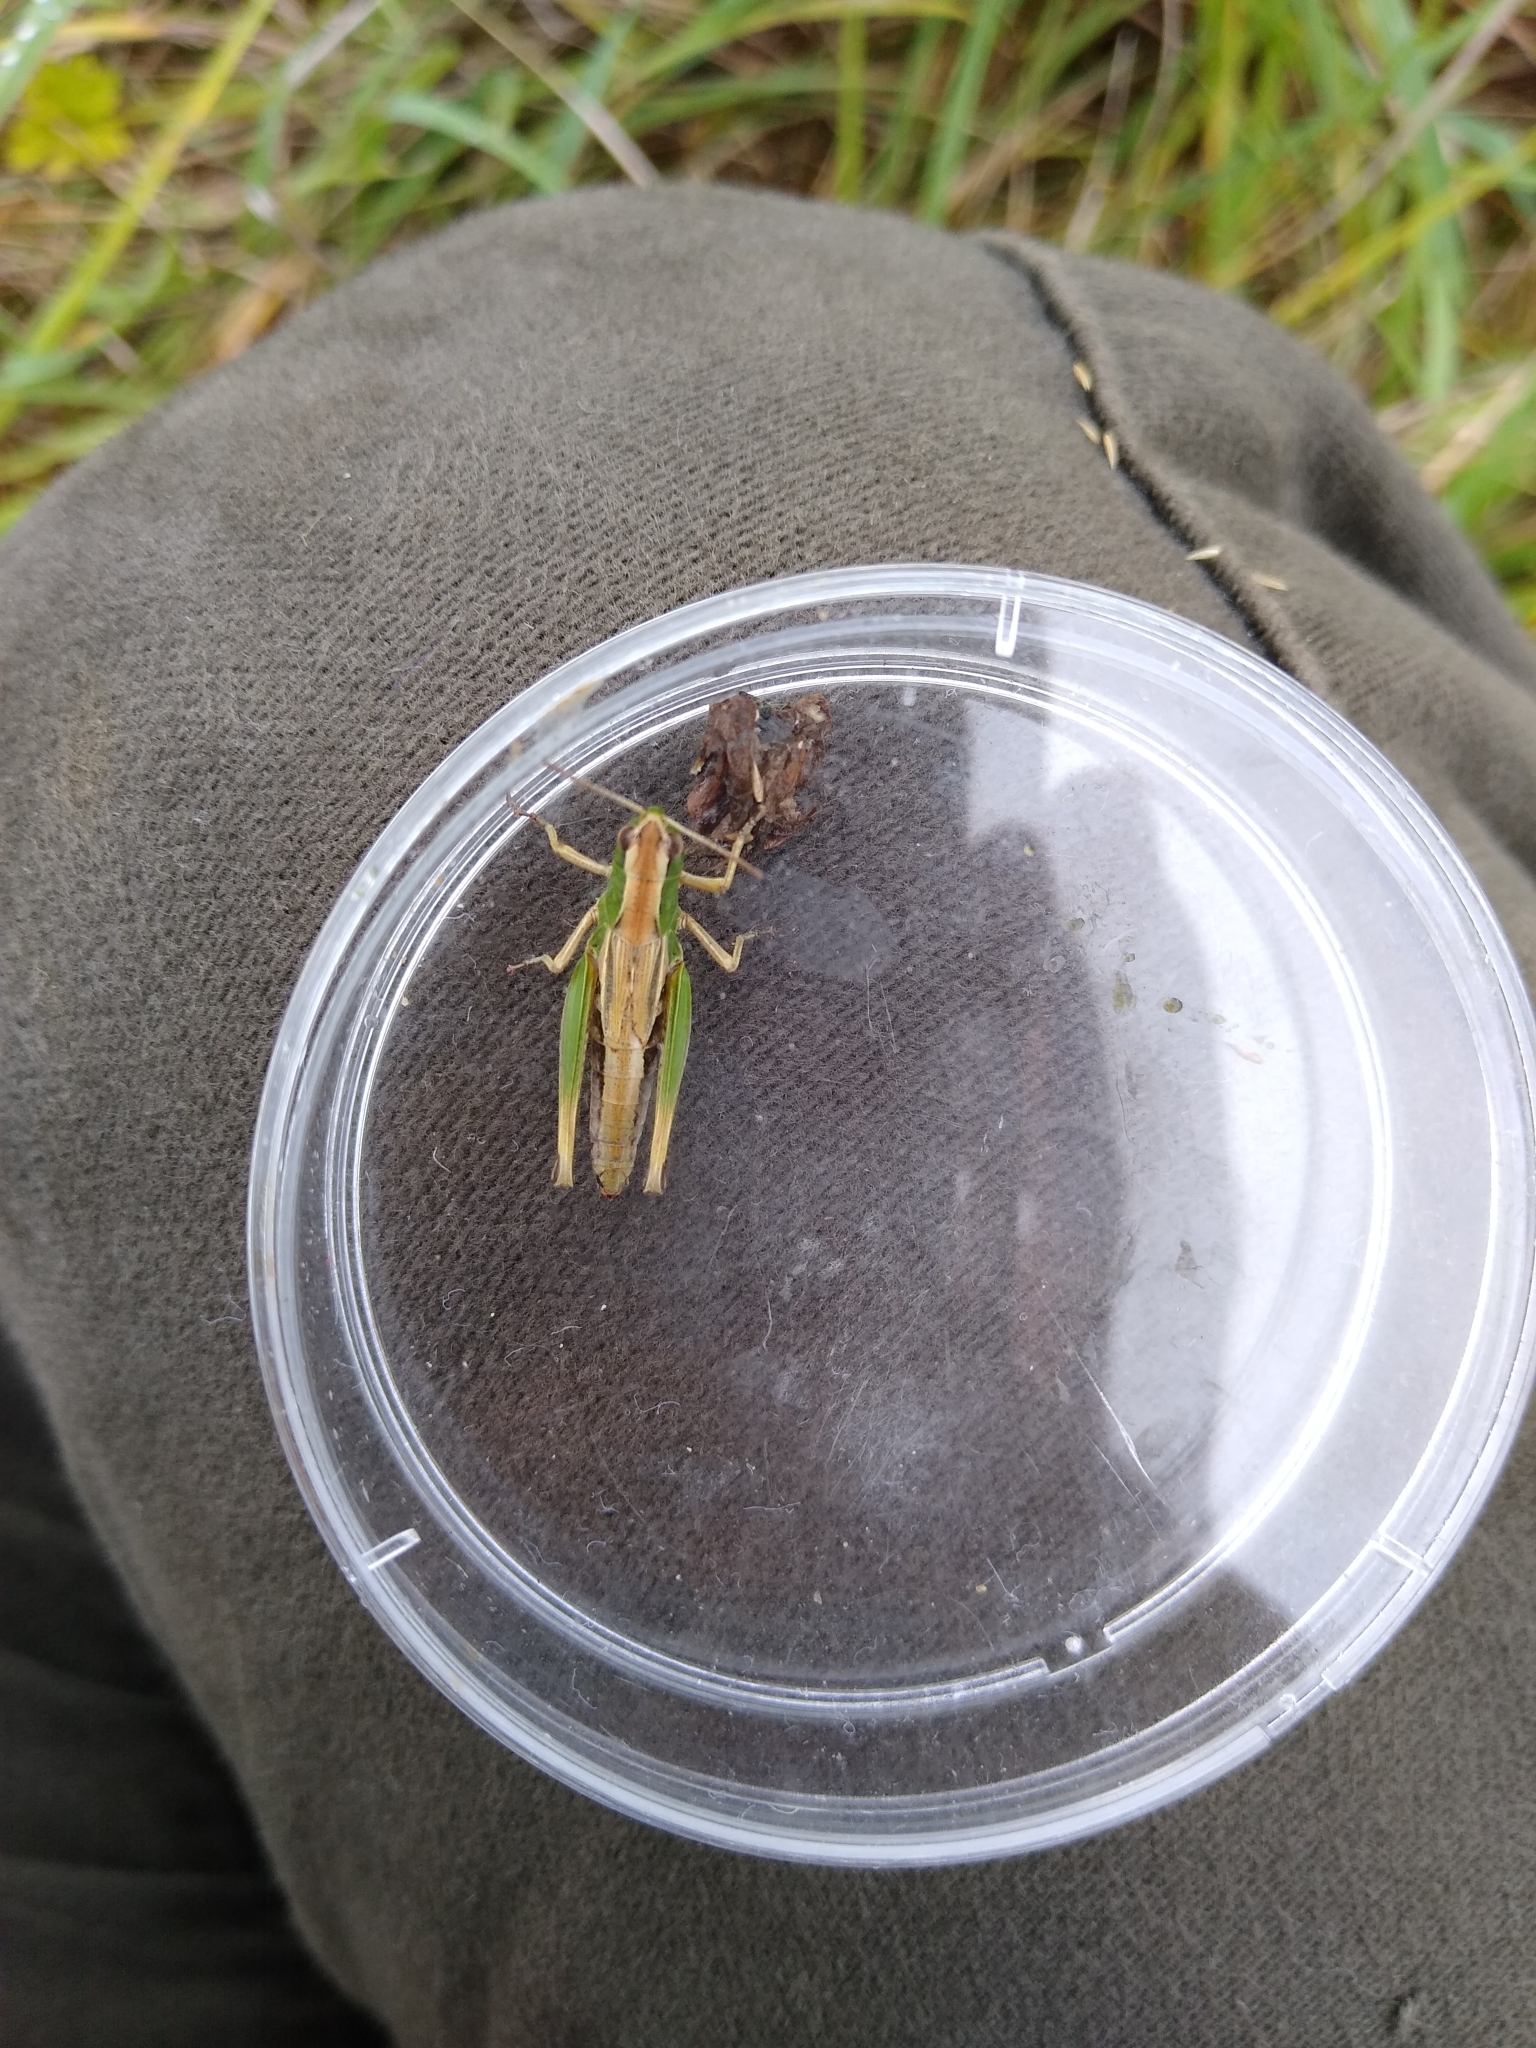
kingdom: Animalia
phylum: Arthropoda
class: Insecta
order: Orthoptera
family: Acrididae
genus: Pseudochorthippus
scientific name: Pseudochorthippus parallelus
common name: Meadow grasshopper
